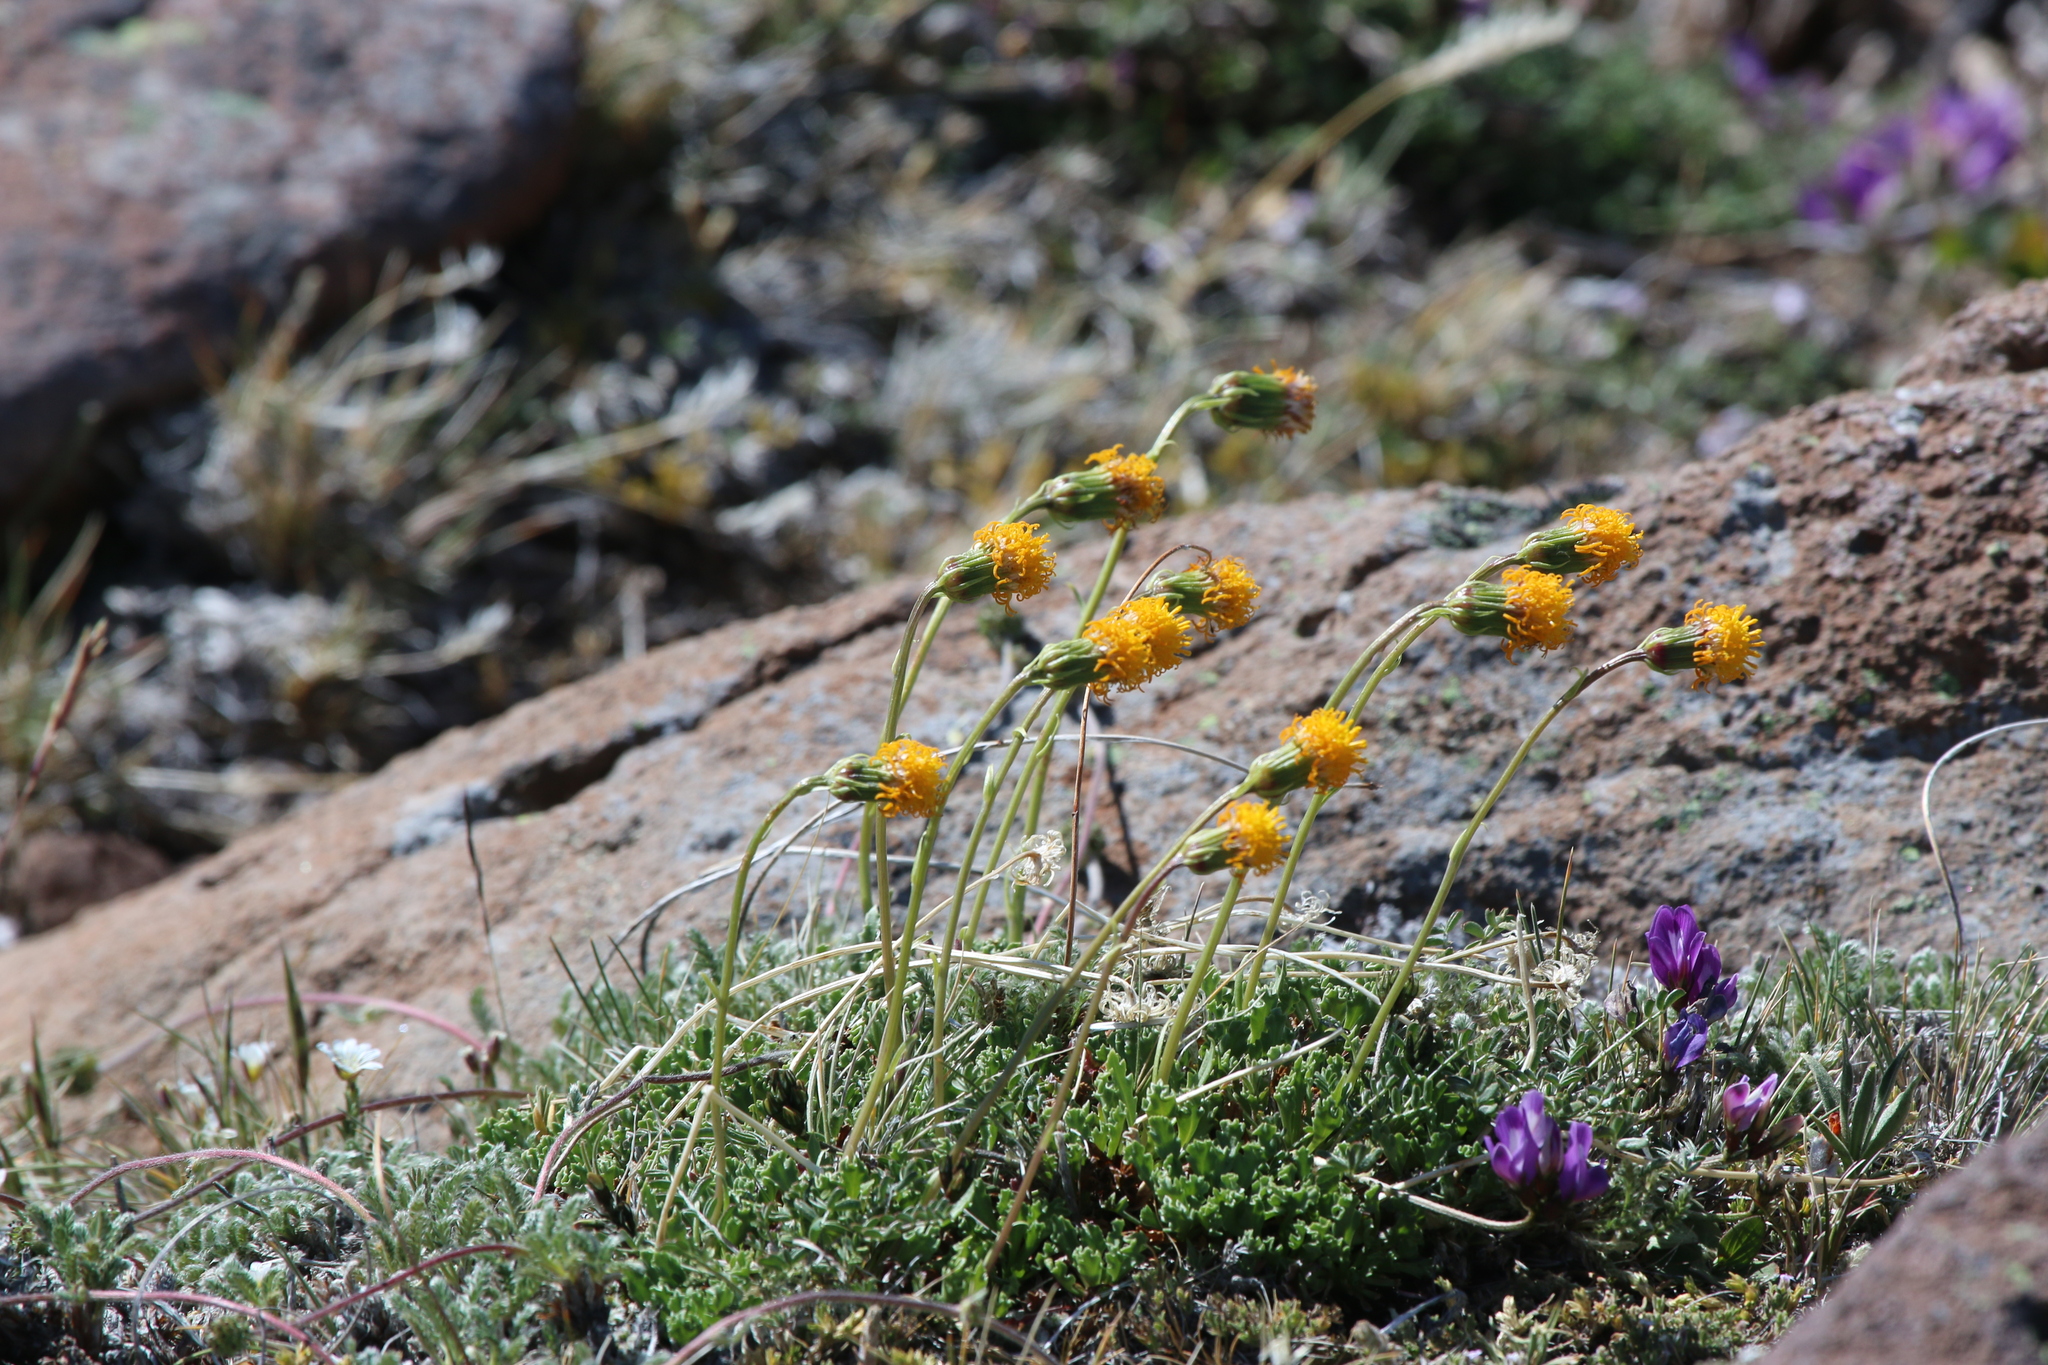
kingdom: Plantae
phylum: Tracheophyta
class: Magnoliopsida
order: Asterales
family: Asteraceae
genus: Senecio
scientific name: Senecio kingii
